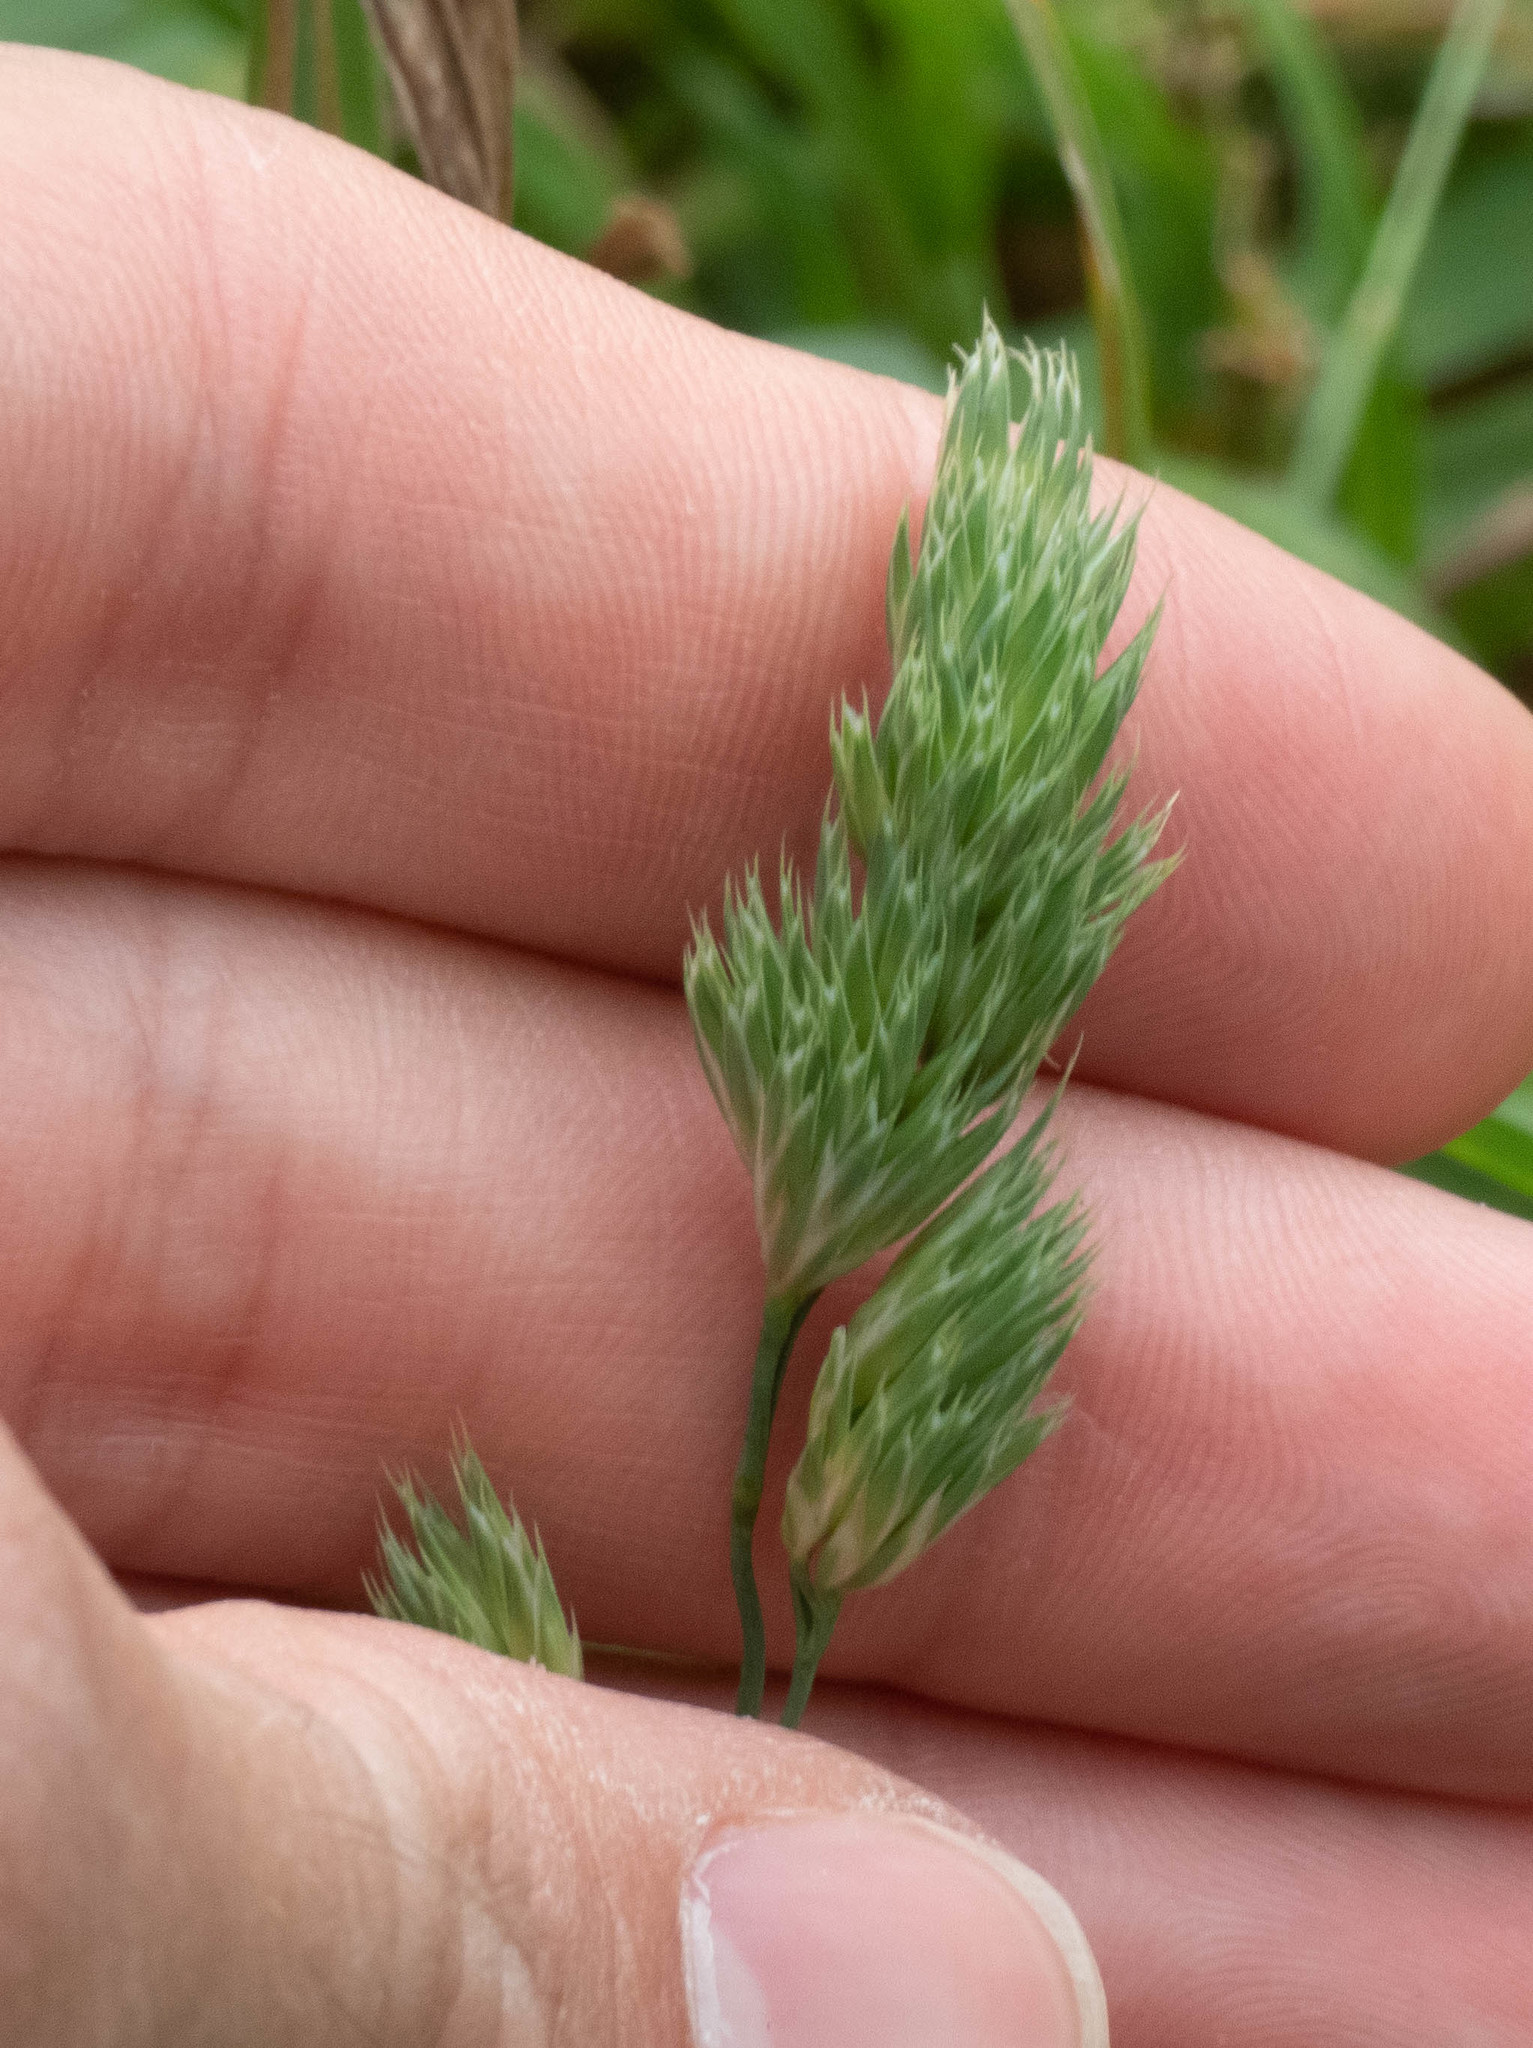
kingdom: Plantae
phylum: Tracheophyta
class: Liliopsida
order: Poales
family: Poaceae
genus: Dactylis
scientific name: Dactylis glomerata
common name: Orchardgrass
